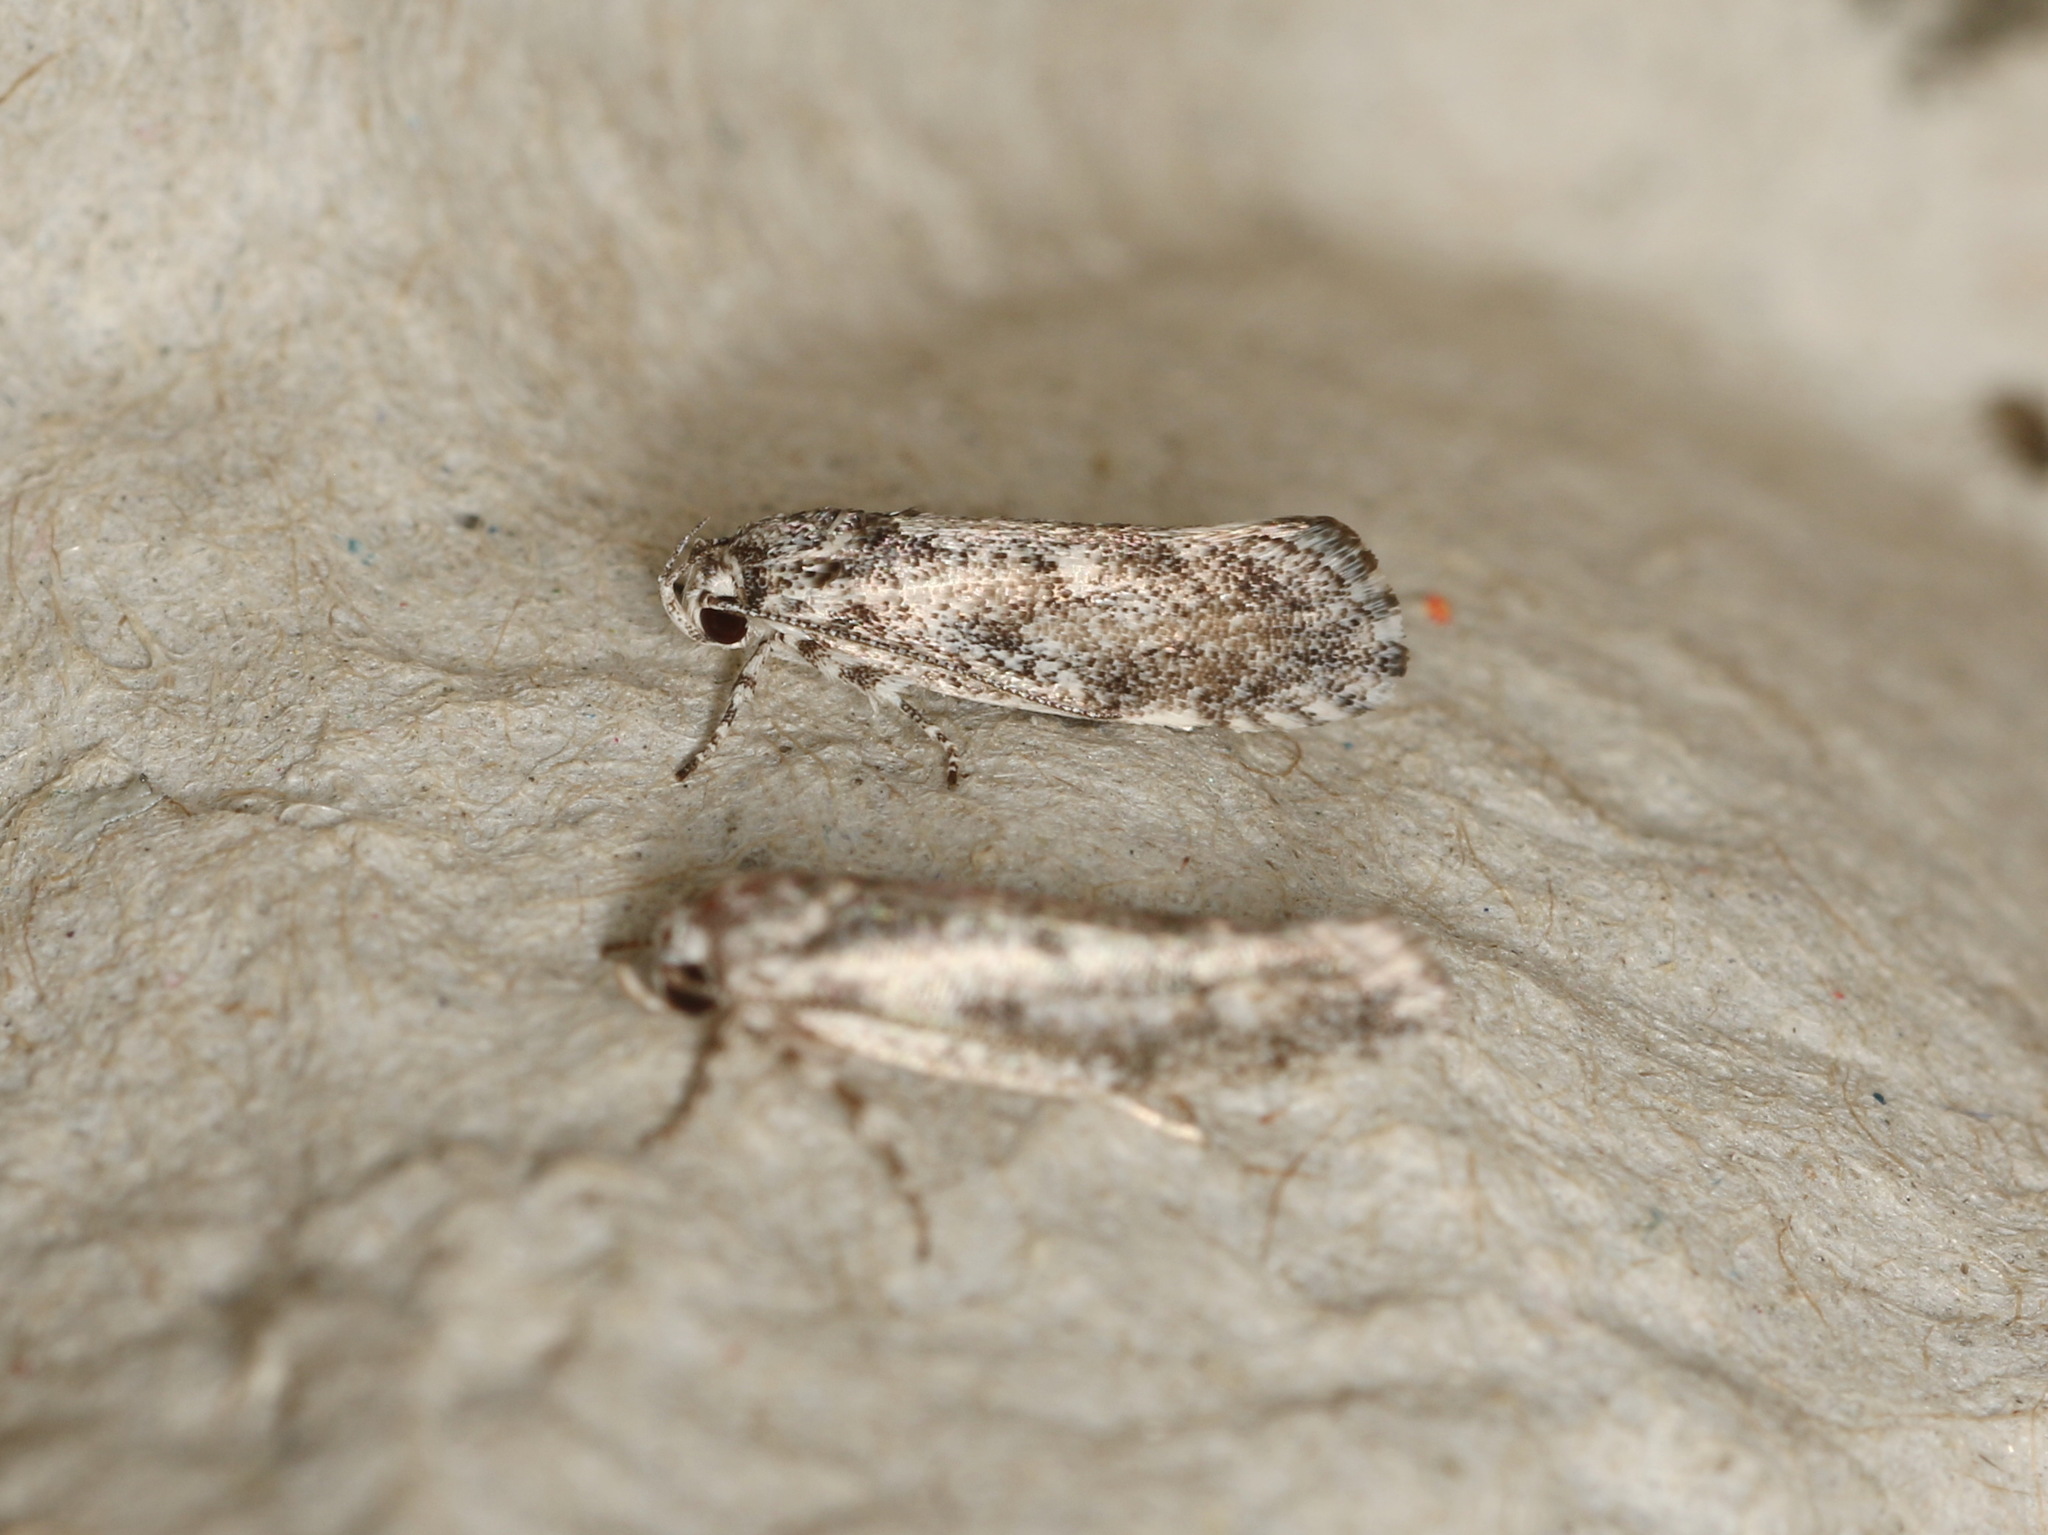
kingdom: Animalia
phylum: Arthropoda
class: Insecta
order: Lepidoptera
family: Xyloryctidae
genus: Lichenaula
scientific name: Lichenaula appropinquans
